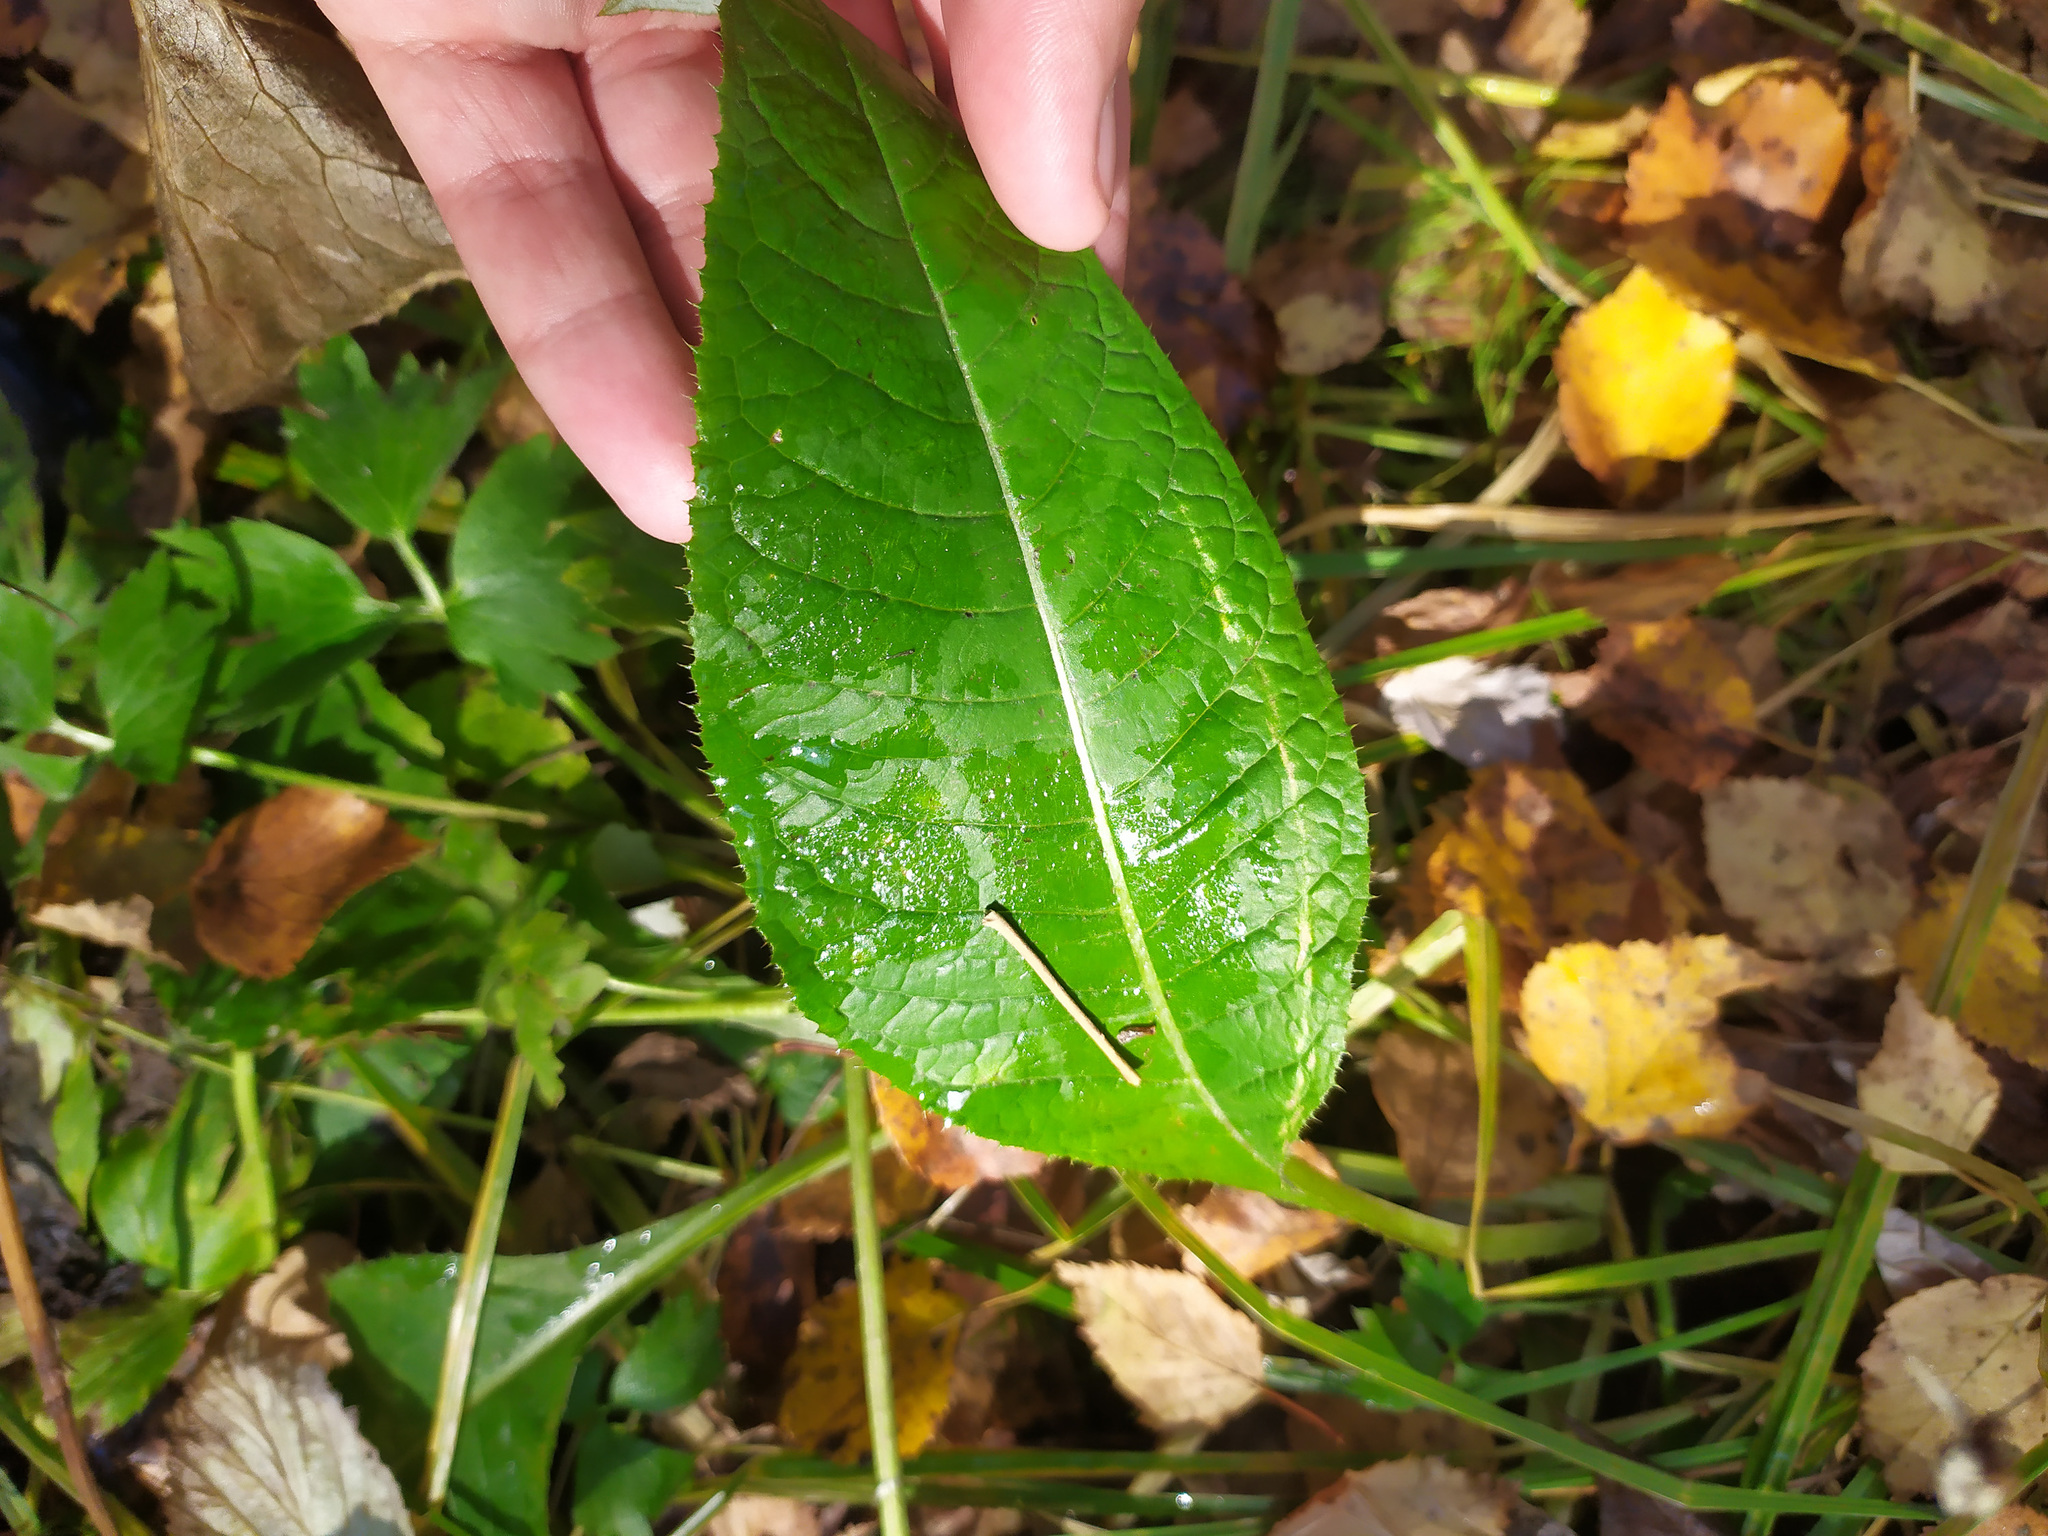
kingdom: Plantae
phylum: Tracheophyta
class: Magnoliopsida
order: Asterales
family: Asteraceae
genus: Cirsium
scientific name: Cirsium heterophyllum
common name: Melancholy thistle
